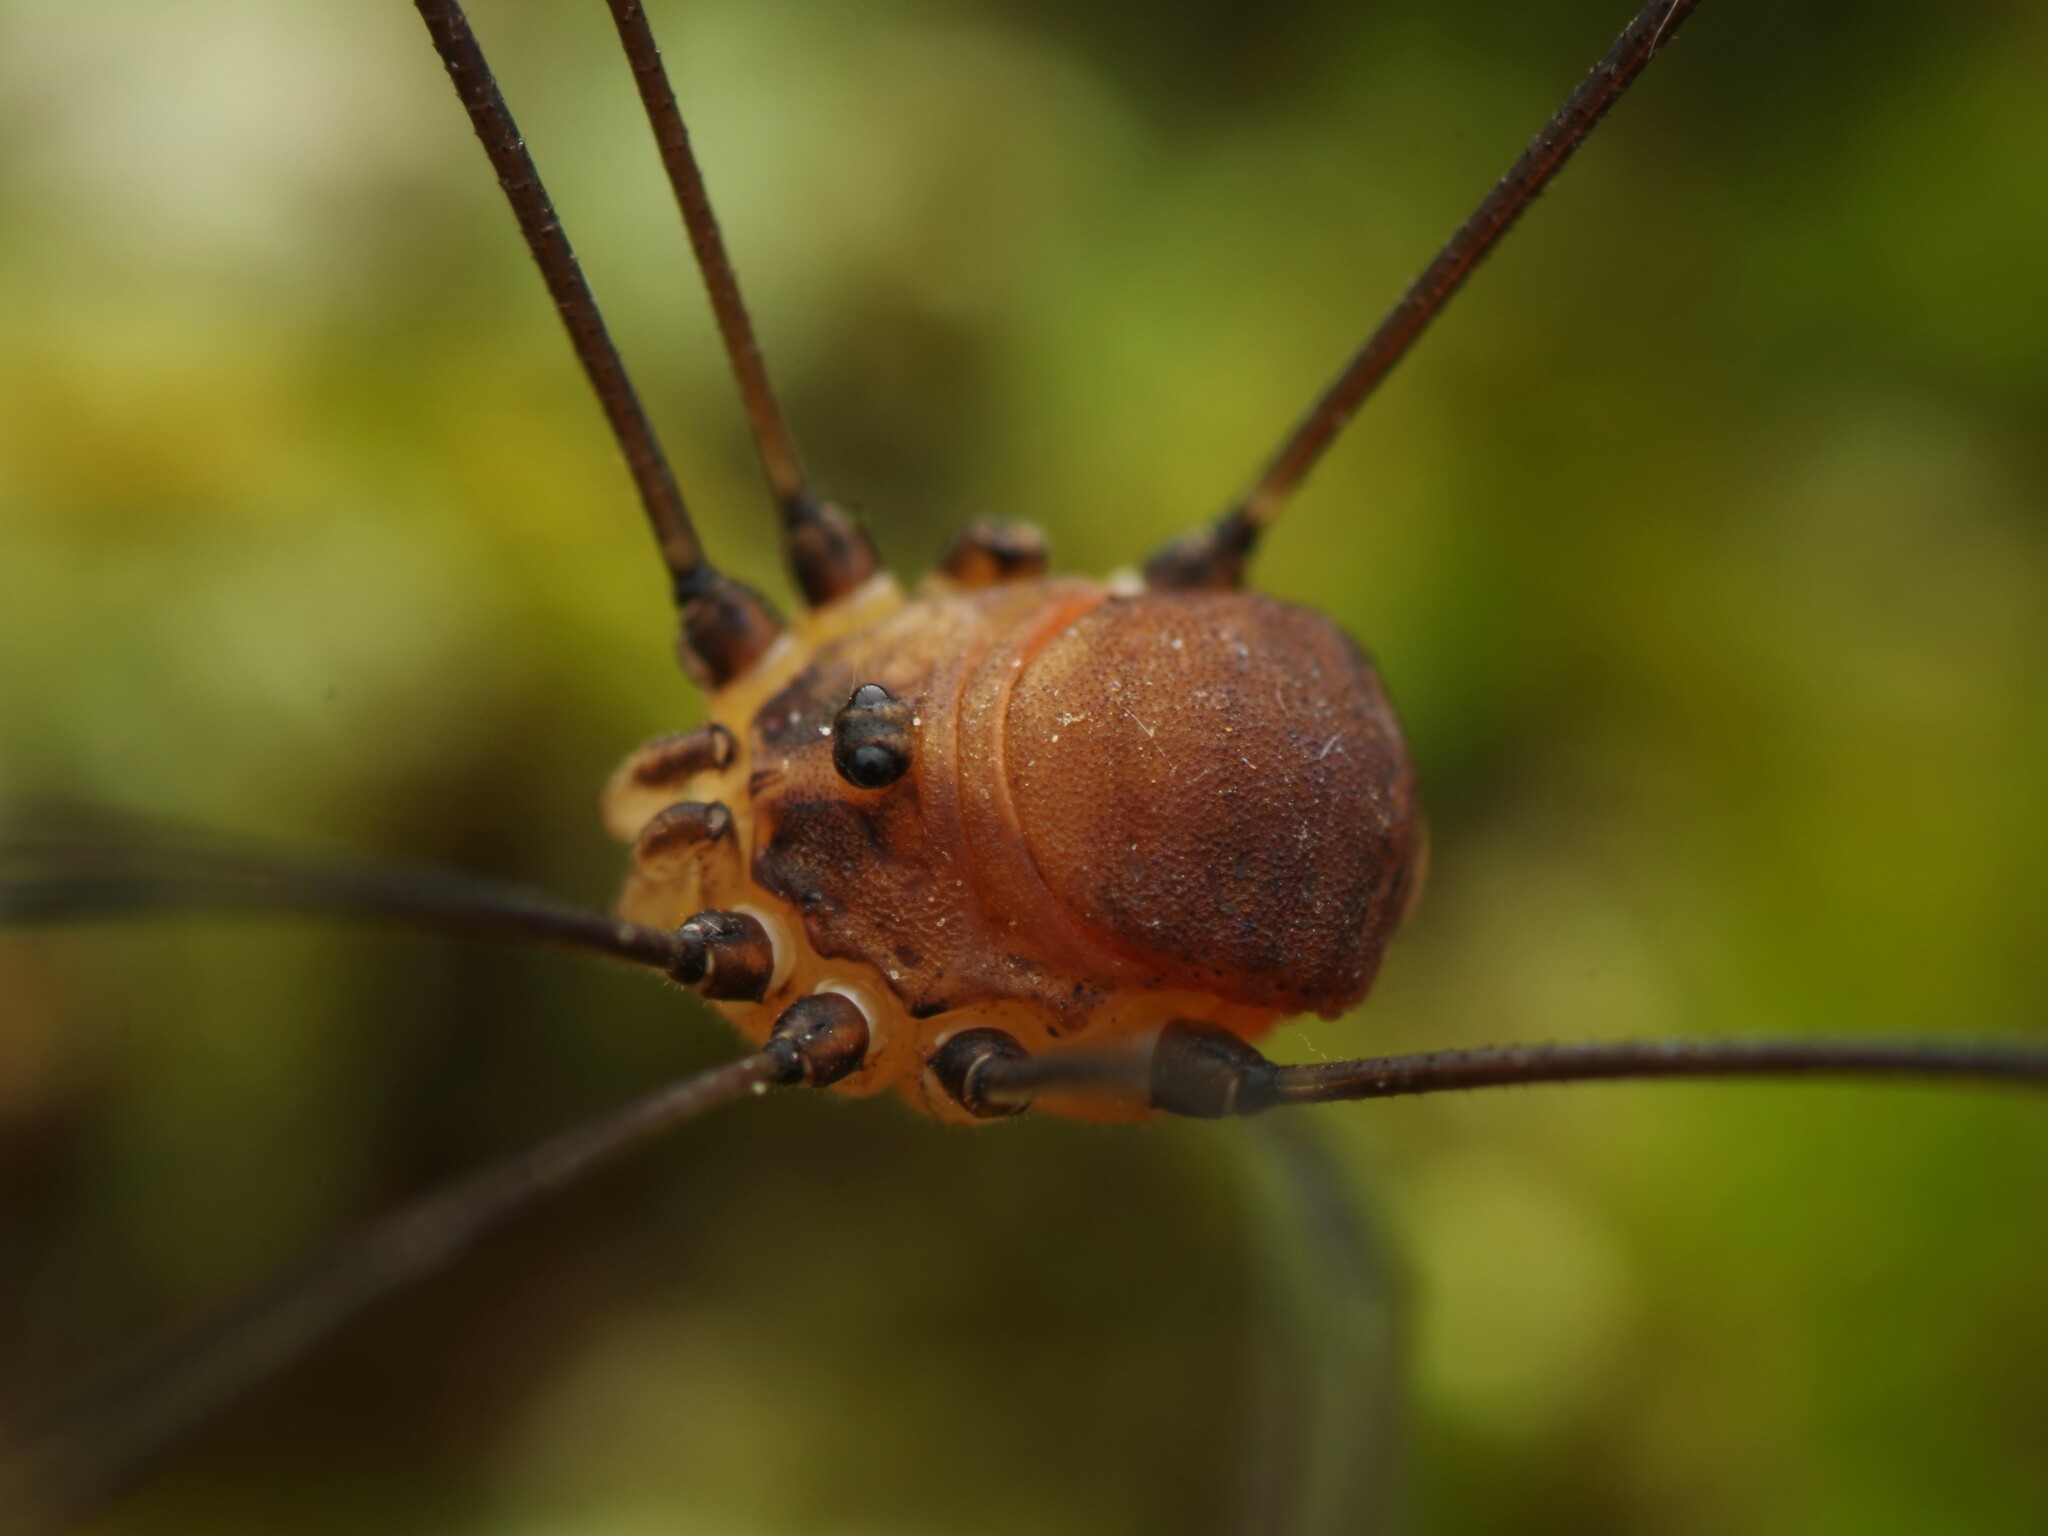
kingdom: Animalia
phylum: Arthropoda
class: Arachnida
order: Opiliones
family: Sclerosomatidae
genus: Leiobunum
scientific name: Leiobunum blackwalli
